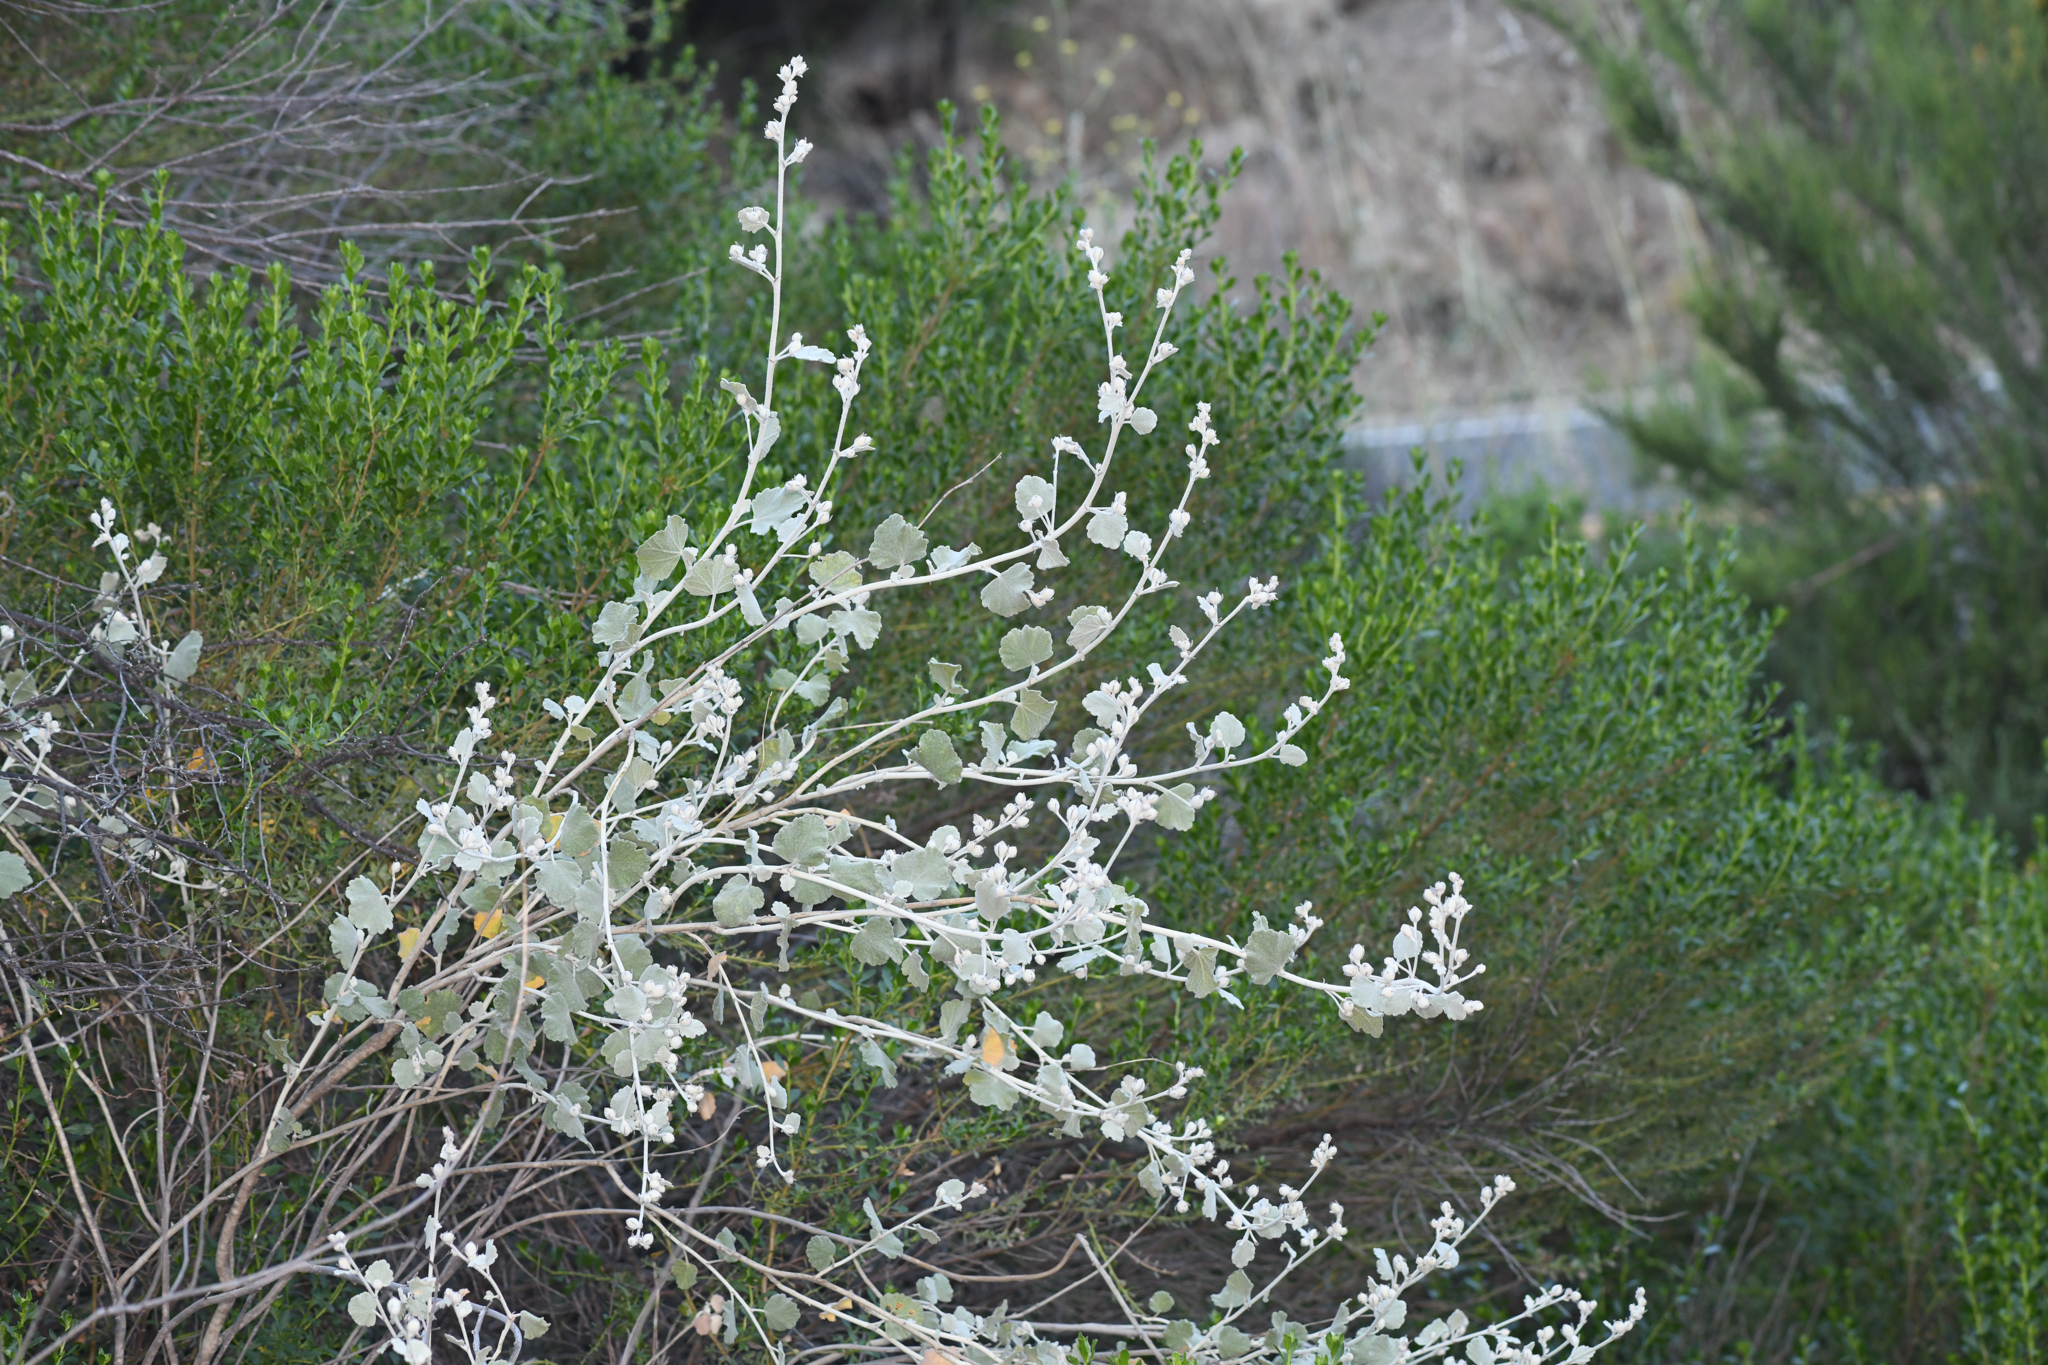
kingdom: Plantae
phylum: Tracheophyta
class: Magnoliopsida
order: Malvales
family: Malvaceae
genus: Malacothamnus
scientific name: Malacothamnus jonesii
